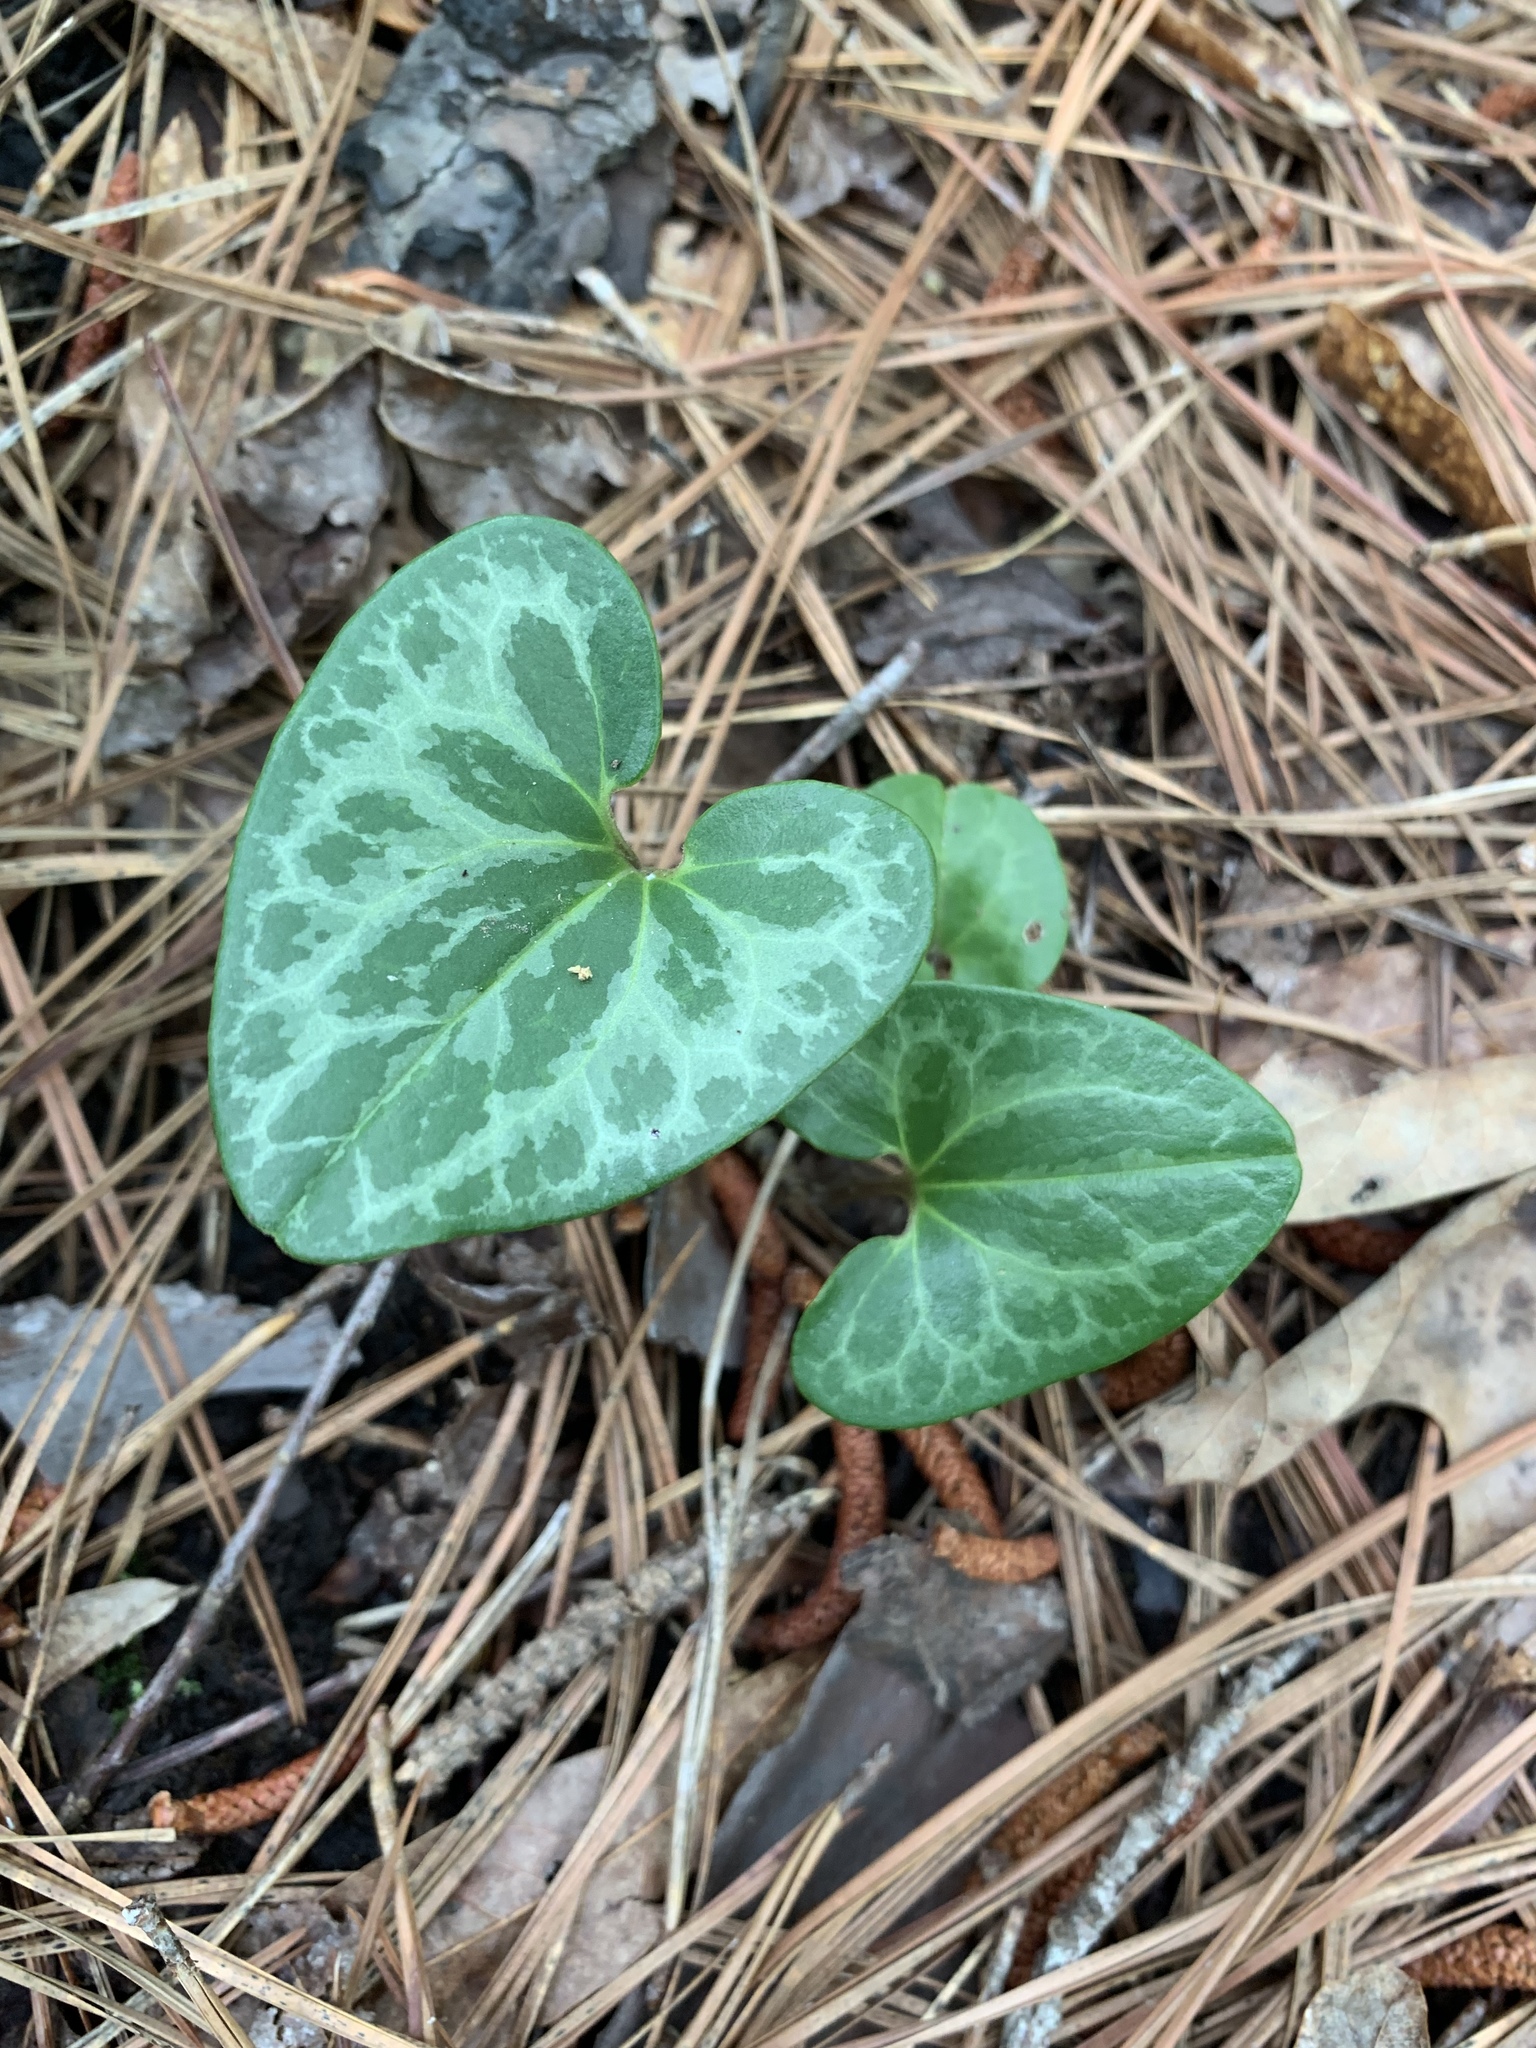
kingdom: Plantae
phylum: Tracheophyta
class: Magnoliopsida
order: Piperales
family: Aristolochiaceae
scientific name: Aristolochiaceae
